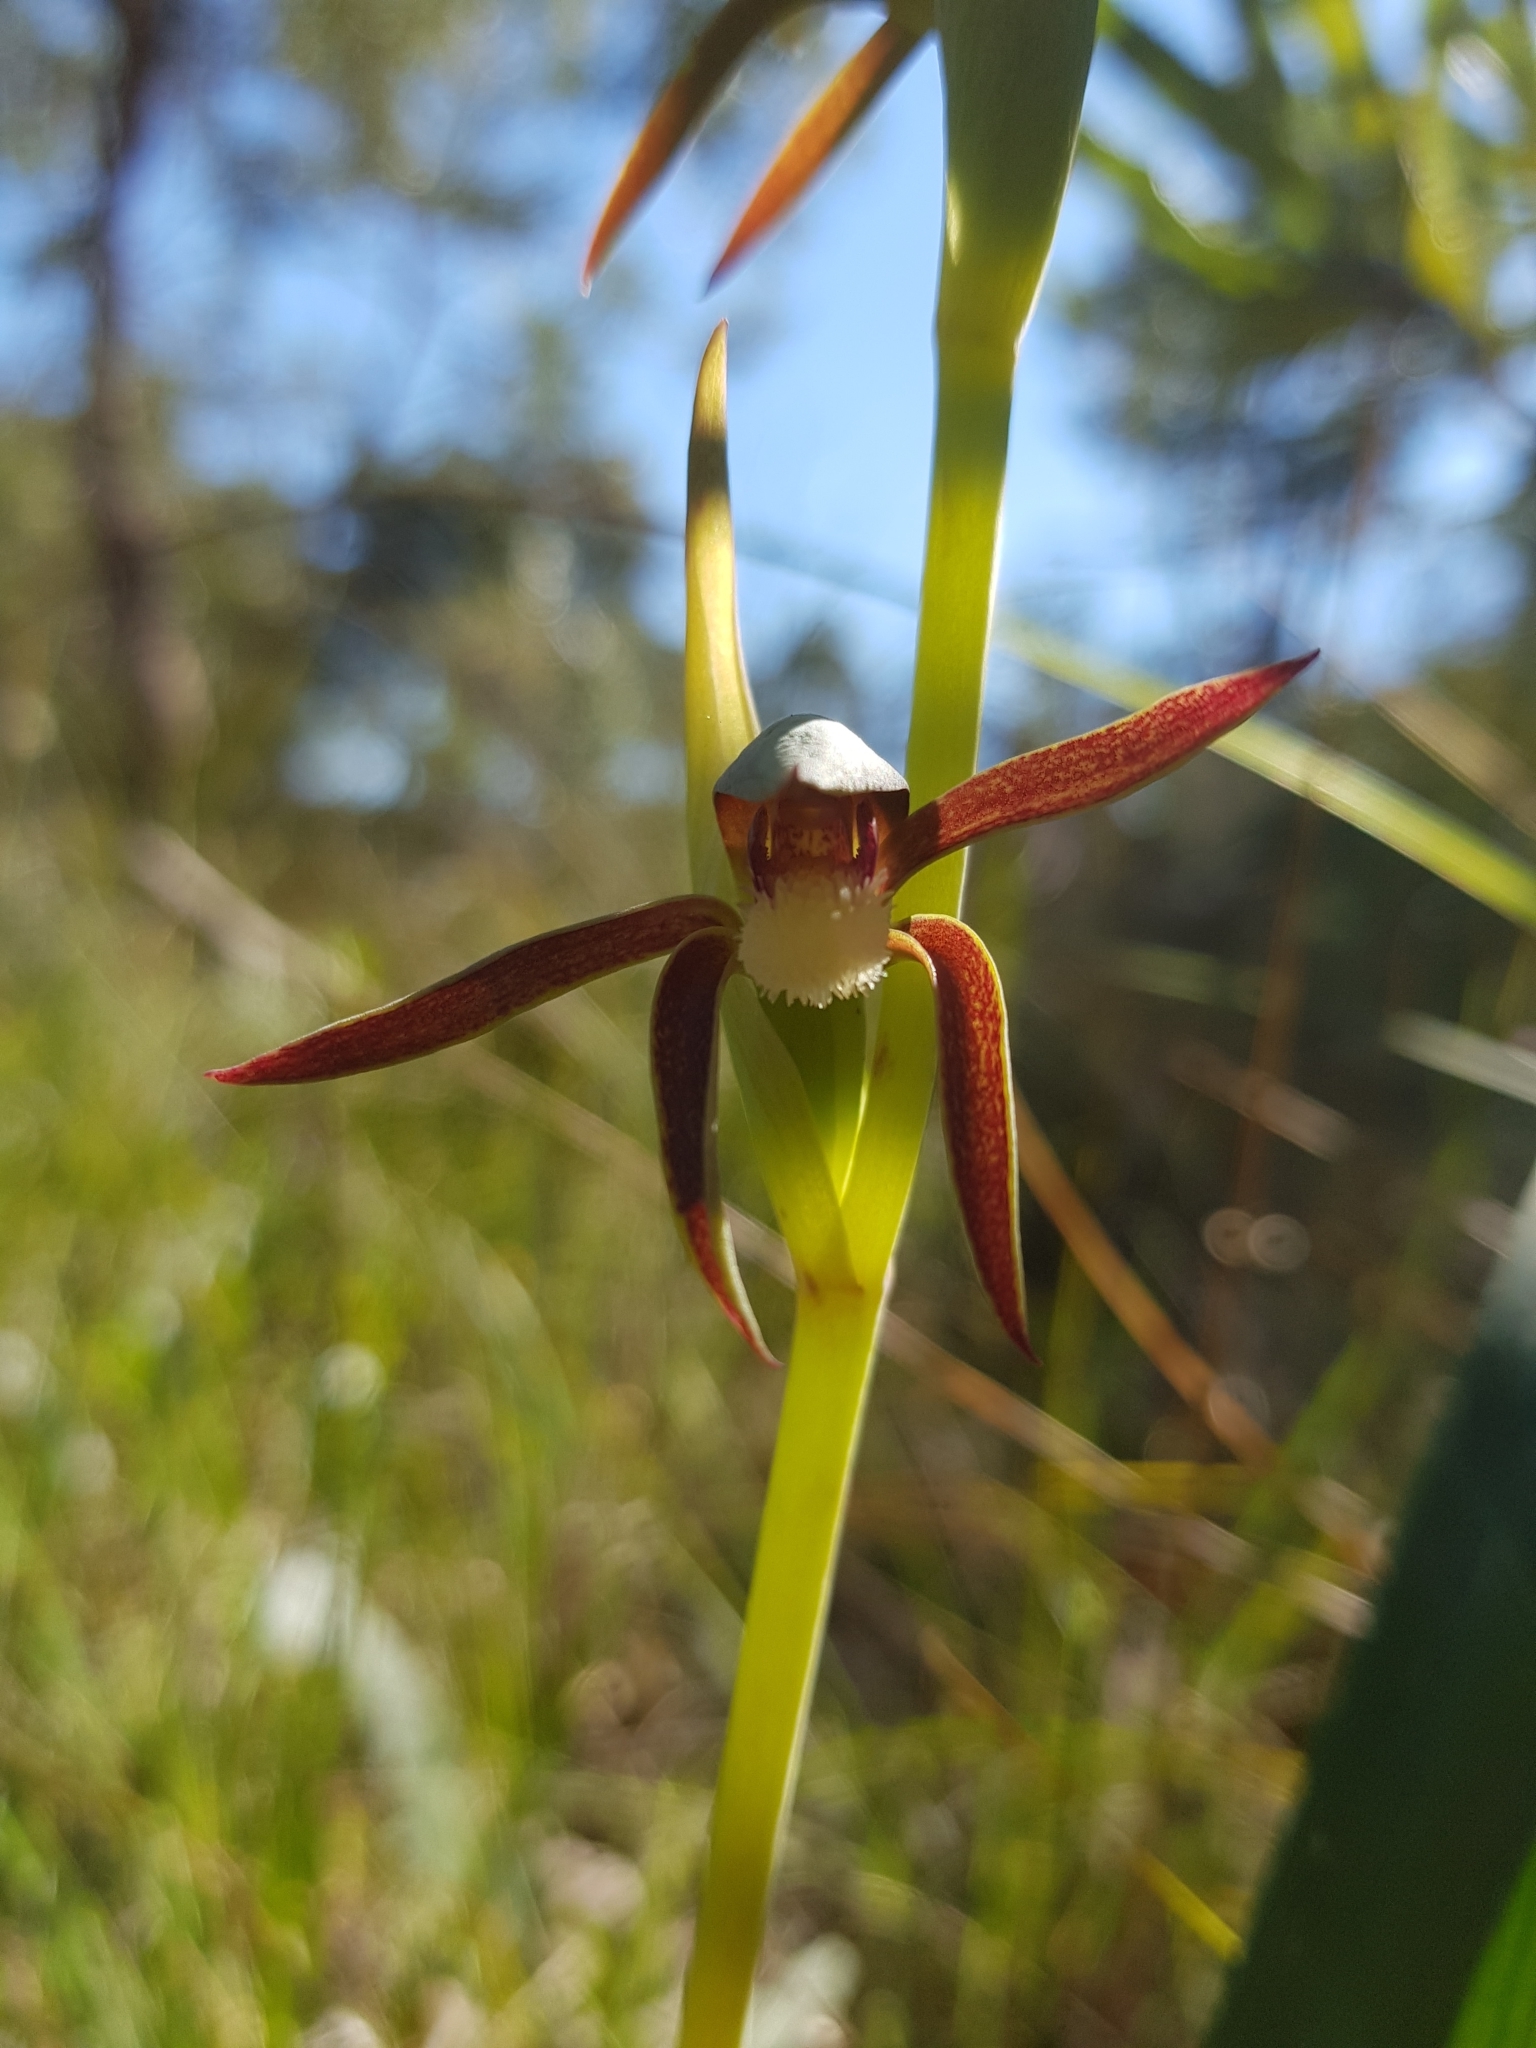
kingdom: Plantae
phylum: Tracheophyta
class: Liliopsida
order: Asparagales
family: Orchidaceae
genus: Lyperanthus
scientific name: Lyperanthus serratus
